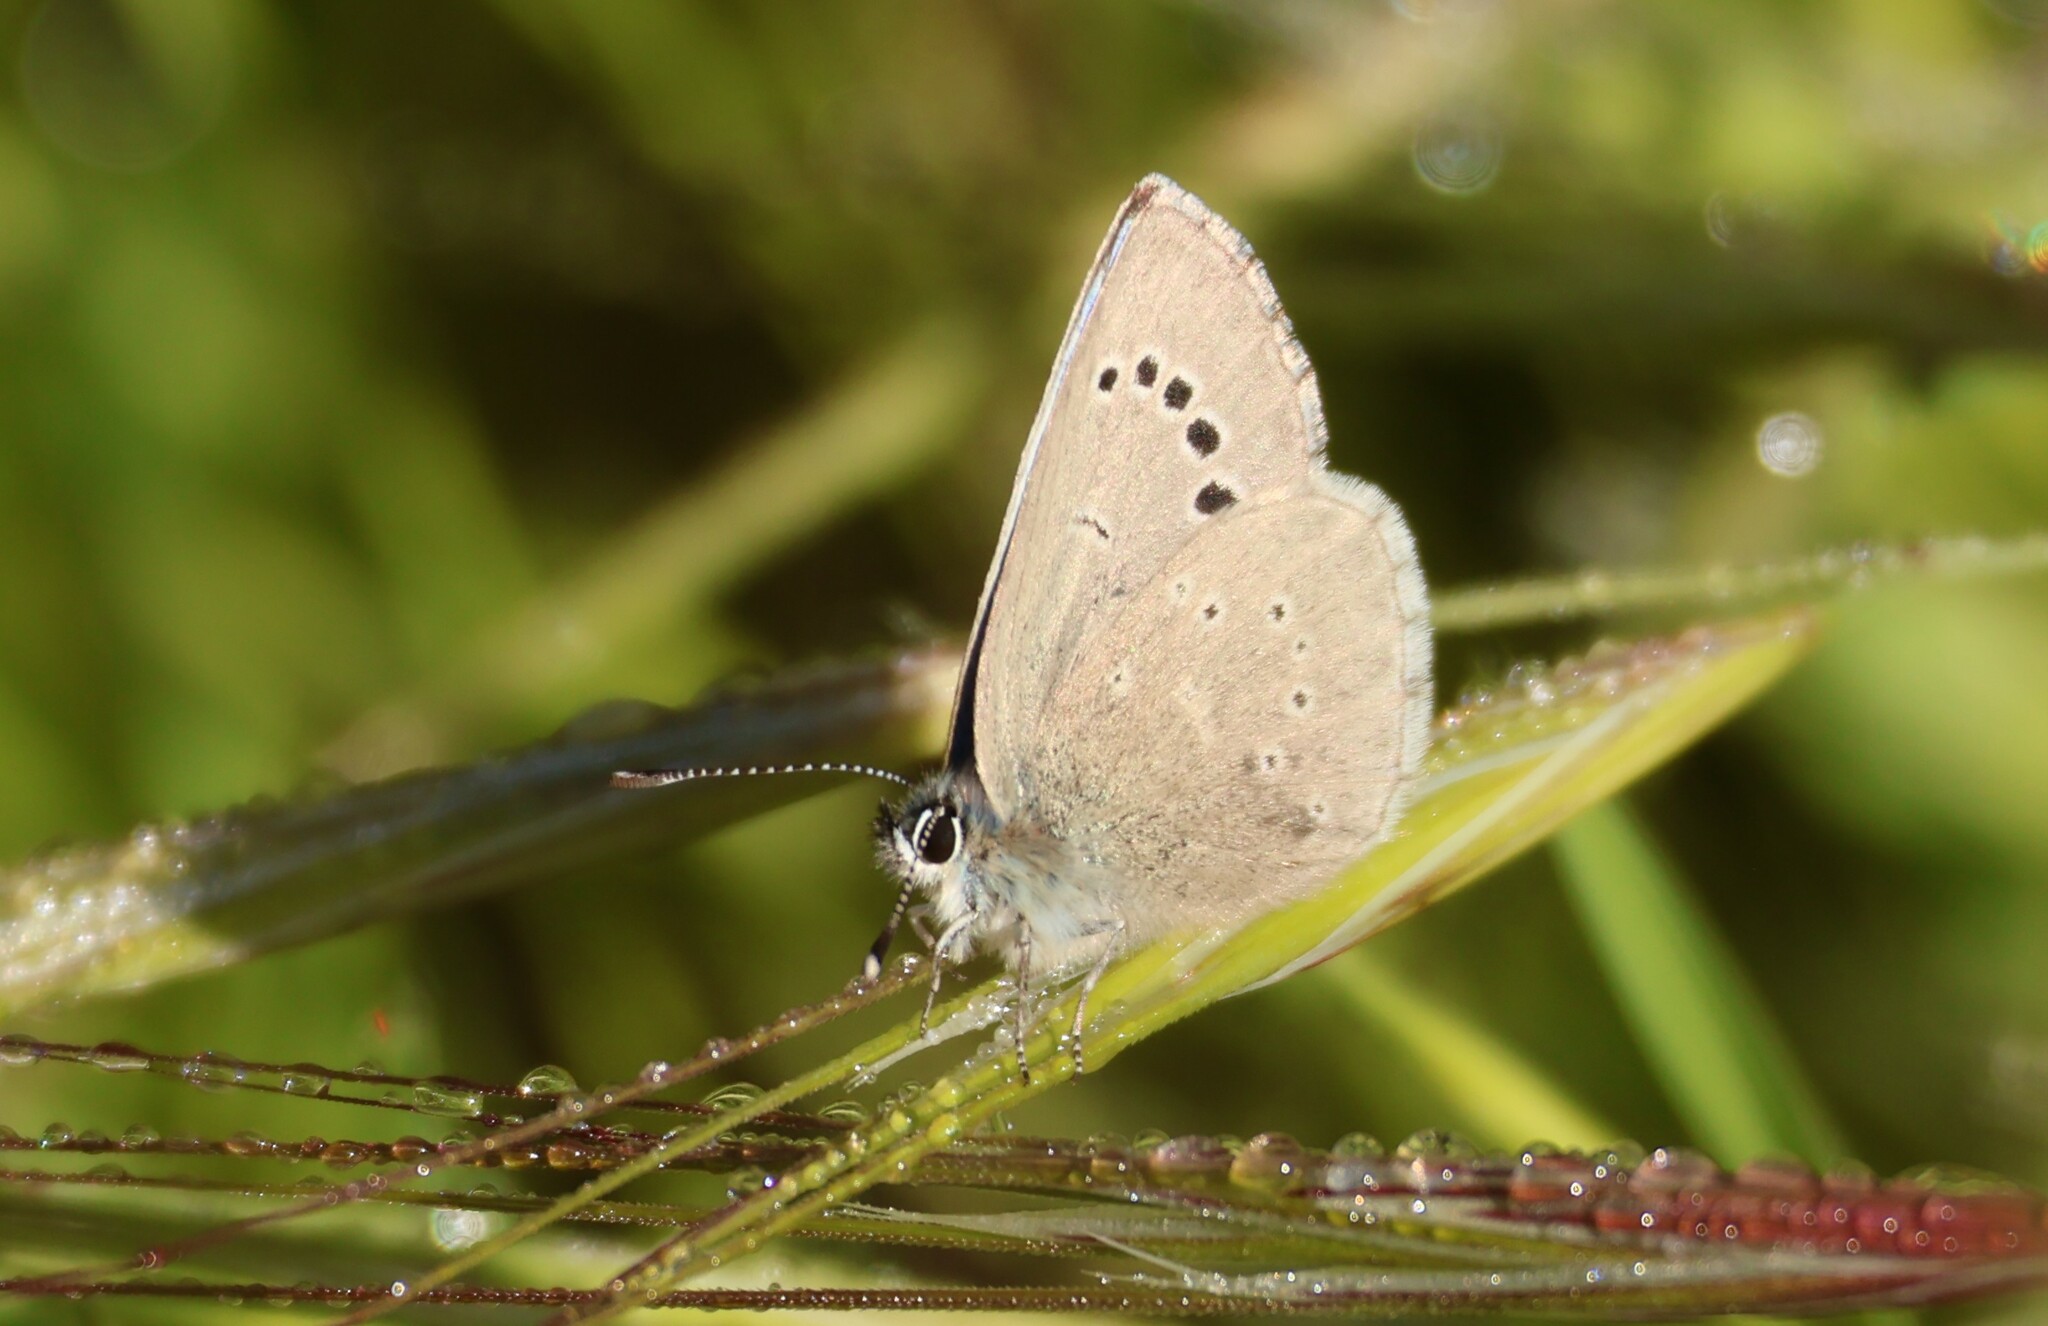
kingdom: Animalia
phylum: Arthropoda
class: Insecta
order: Lepidoptera
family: Lycaenidae
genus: Glaucopsyche
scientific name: Glaucopsyche lygdamus
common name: Silvery blue
